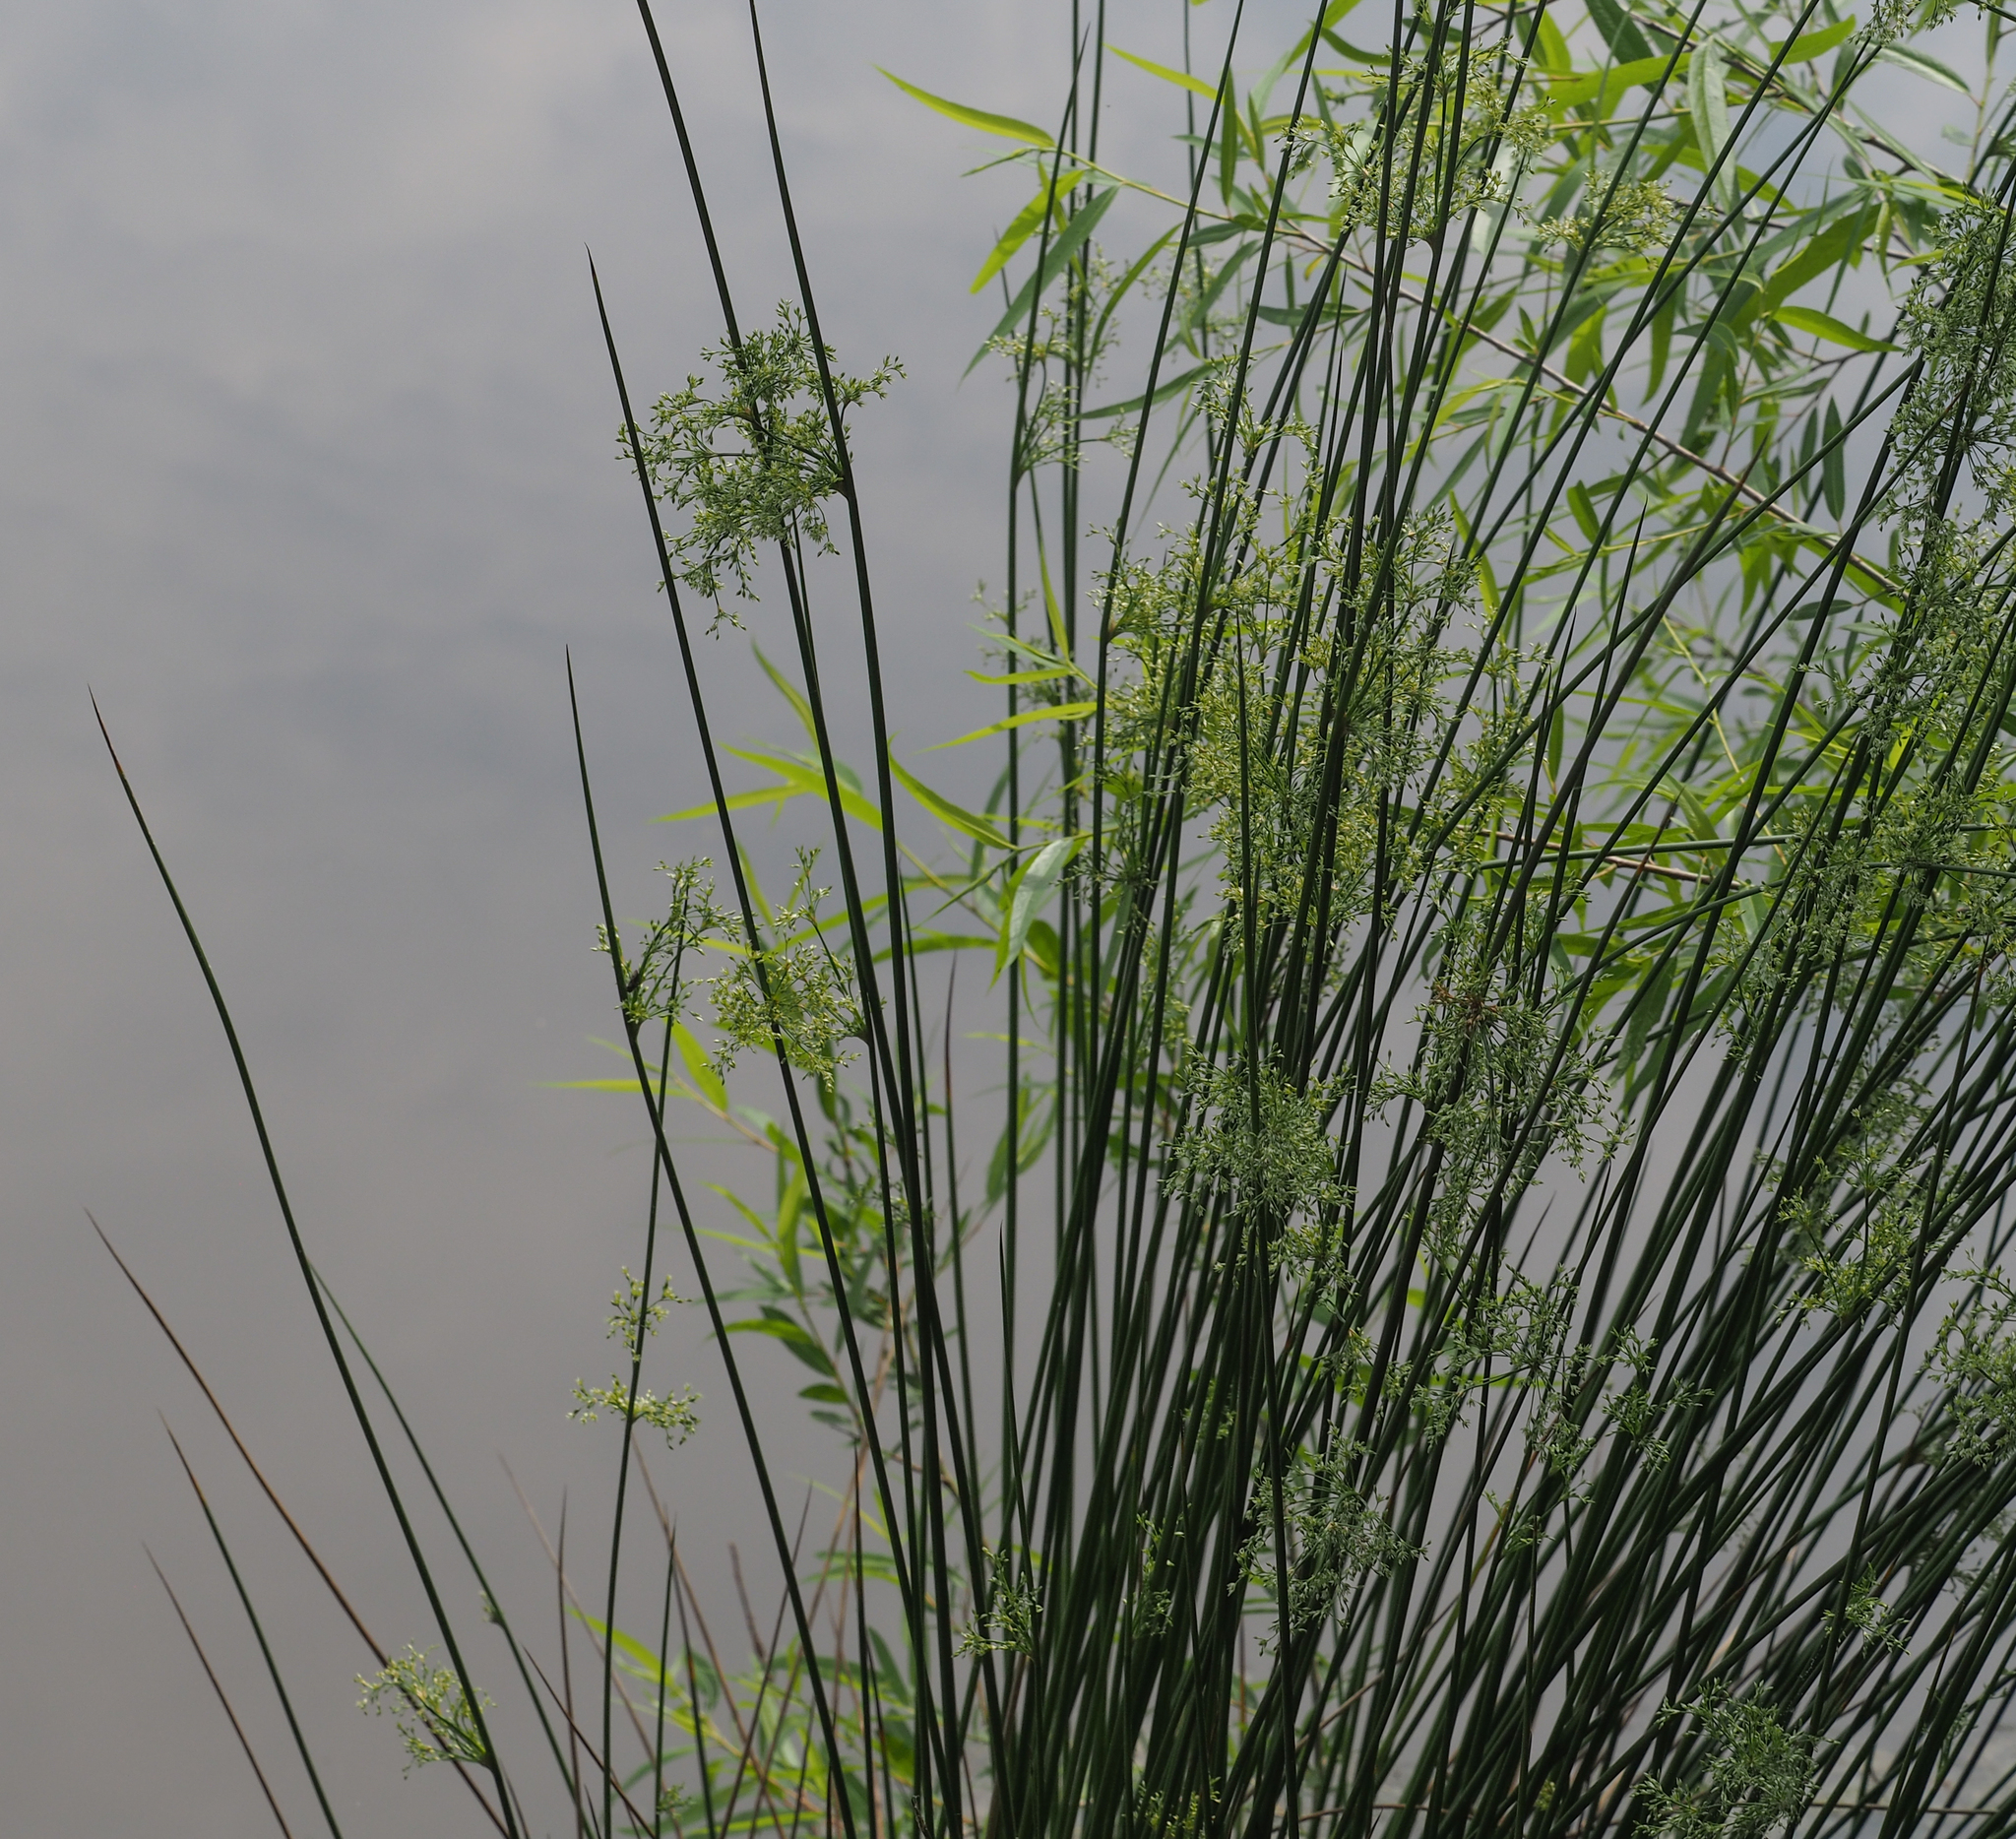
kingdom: Plantae
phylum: Tracheophyta
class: Liliopsida
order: Poales
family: Juncaceae
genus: Juncus
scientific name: Juncus effusus
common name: Soft rush
